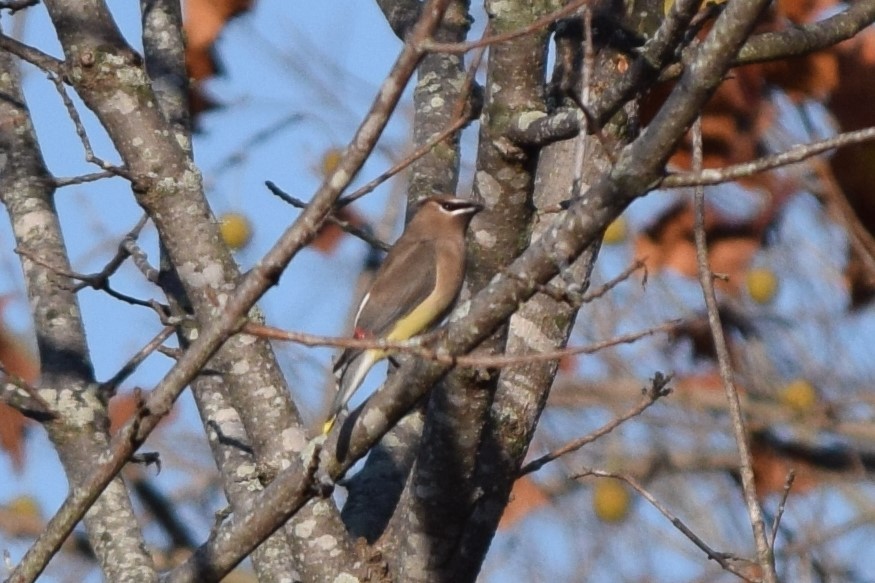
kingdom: Animalia
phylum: Chordata
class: Aves
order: Passeriformes
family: Bombycillidae
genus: Bombycilla
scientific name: Bombycilla cedrorum
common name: Cedar waxwing
